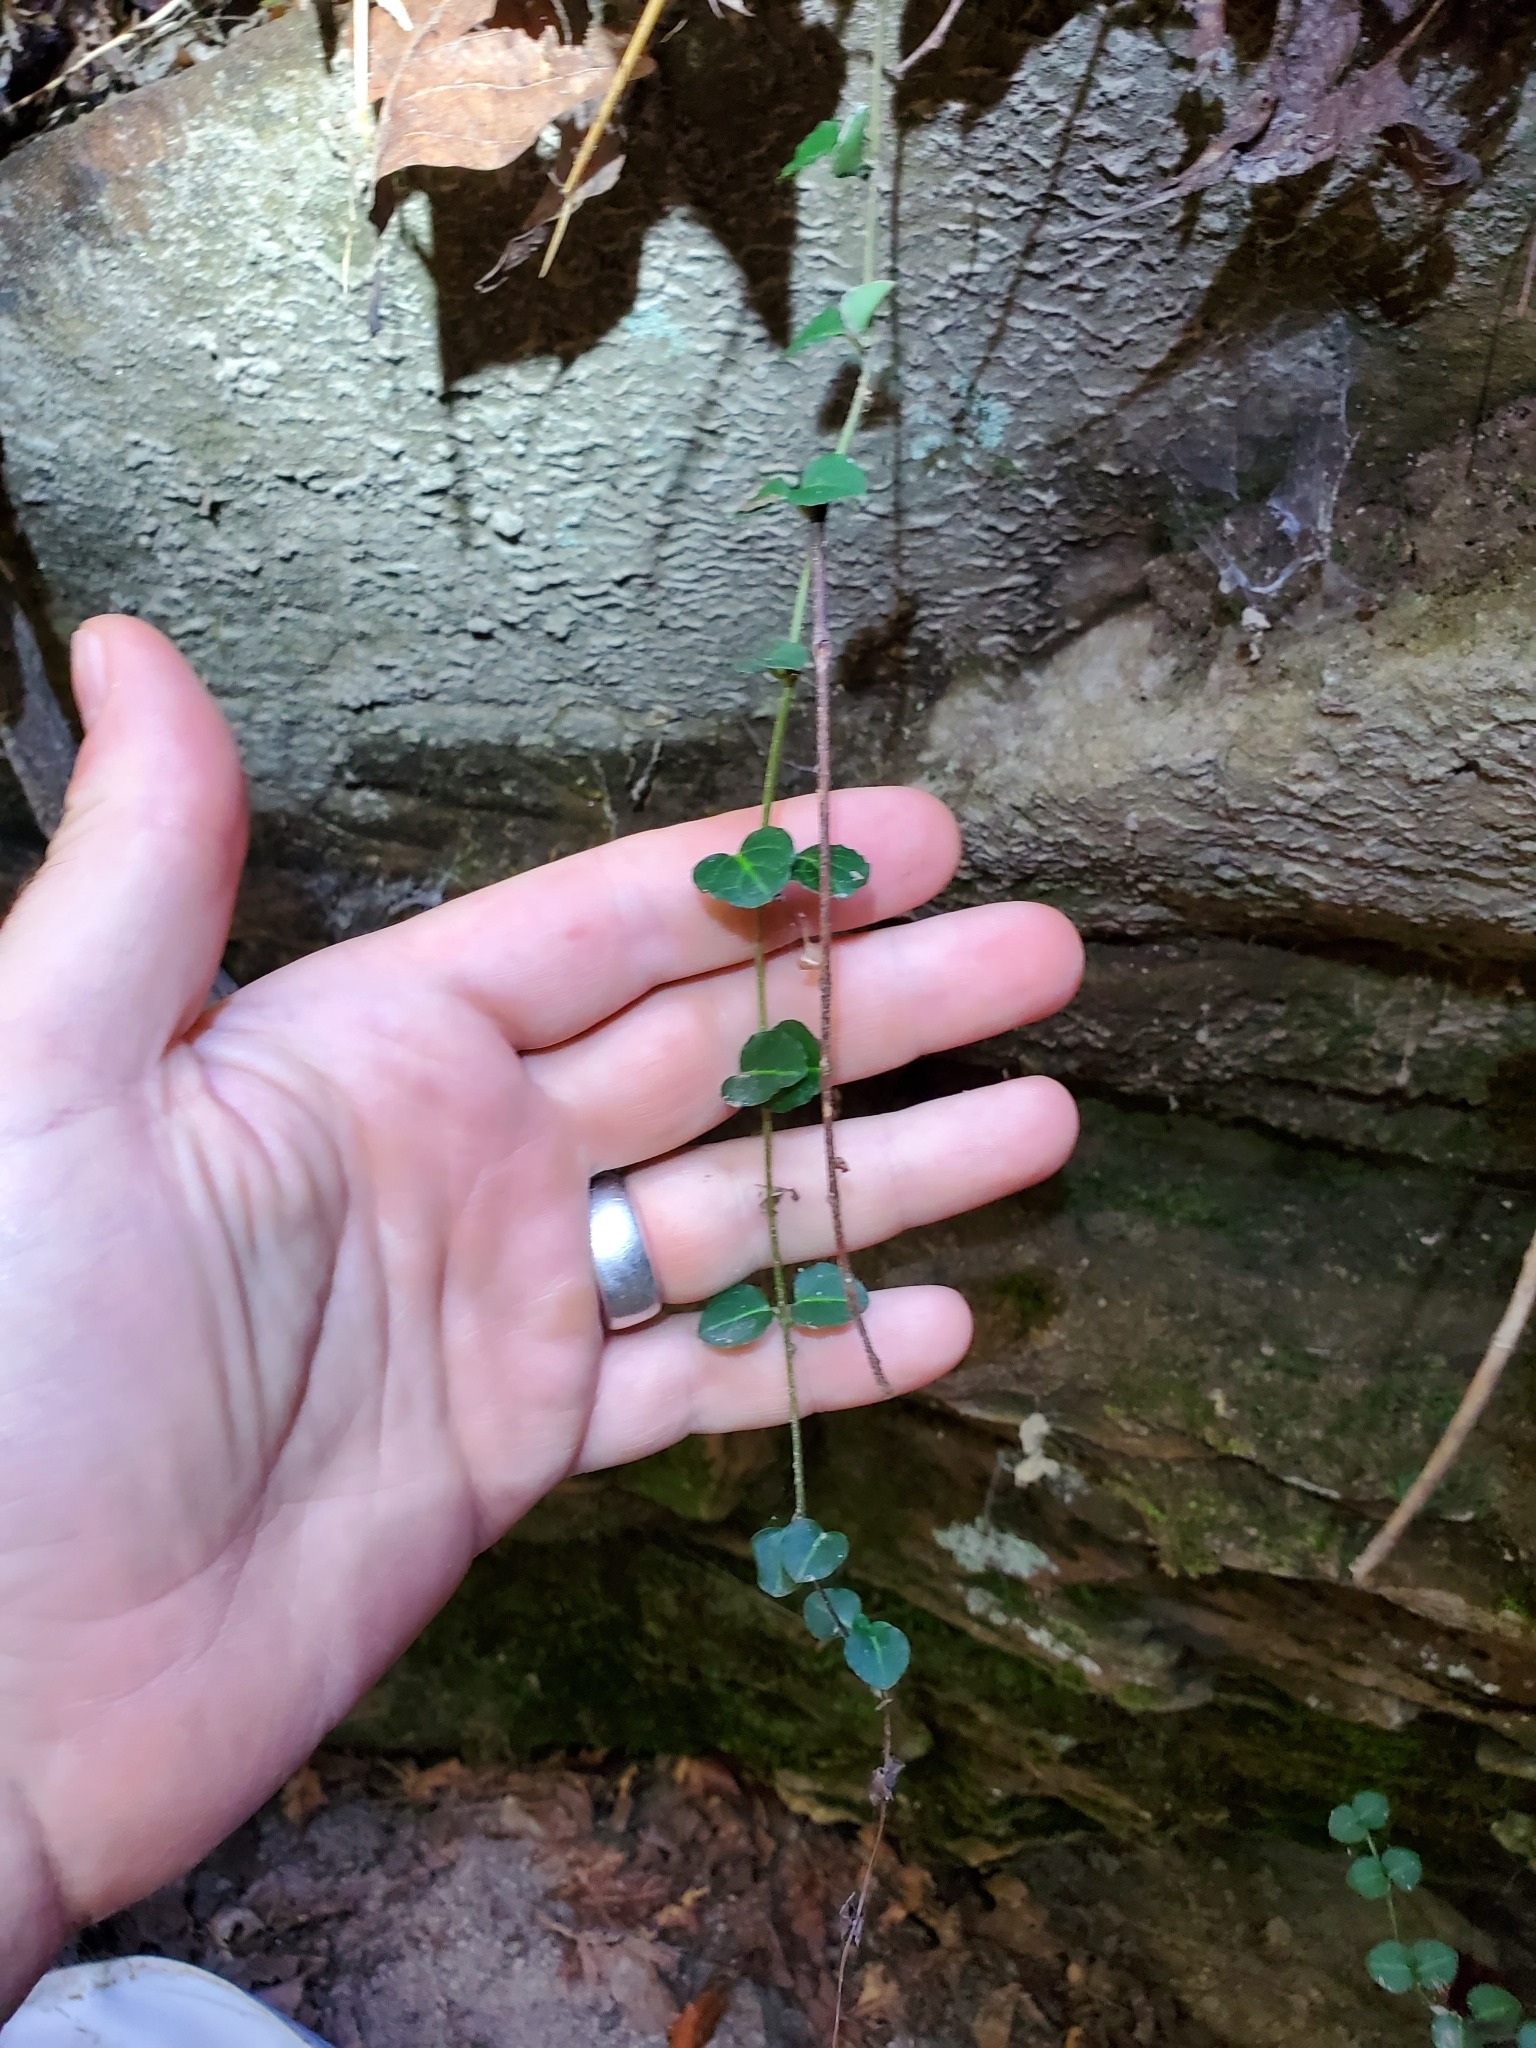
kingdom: Plantae
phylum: Tracheophyta
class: Magnoliopsida
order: Gentianales
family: Rubiaceae
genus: Mitchella
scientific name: Mitchella repens
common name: Partridge-berry
